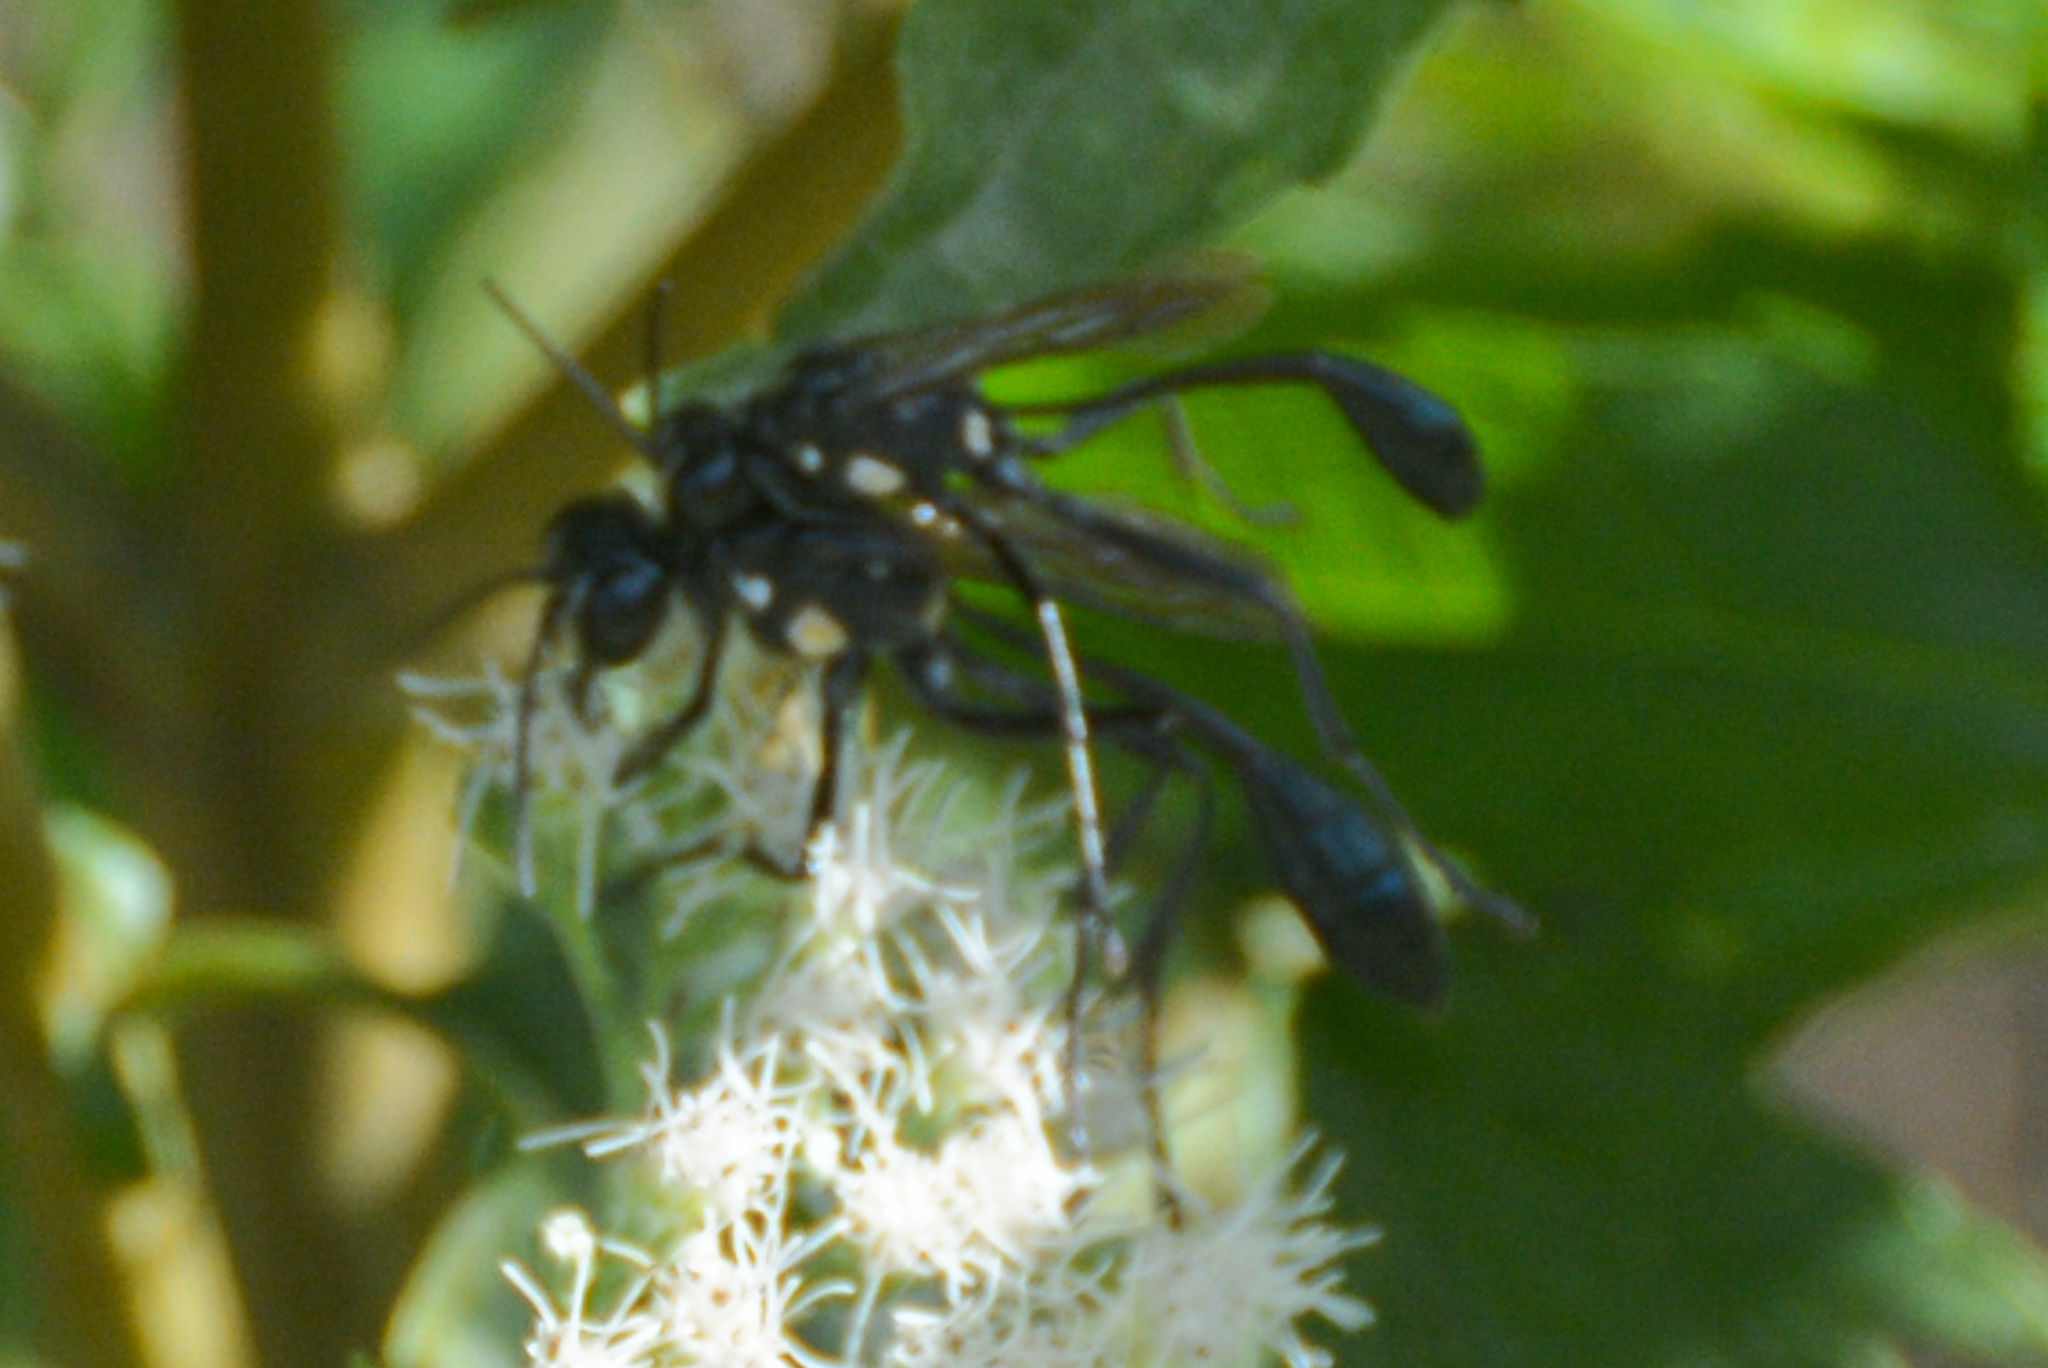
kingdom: Animalia
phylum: Arthropoda
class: Insecta
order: Hymenoptera
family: Sphecidae
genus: Eremnophila
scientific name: Eremnophila aureonotata
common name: Gold-marked thread-waisted wasp
